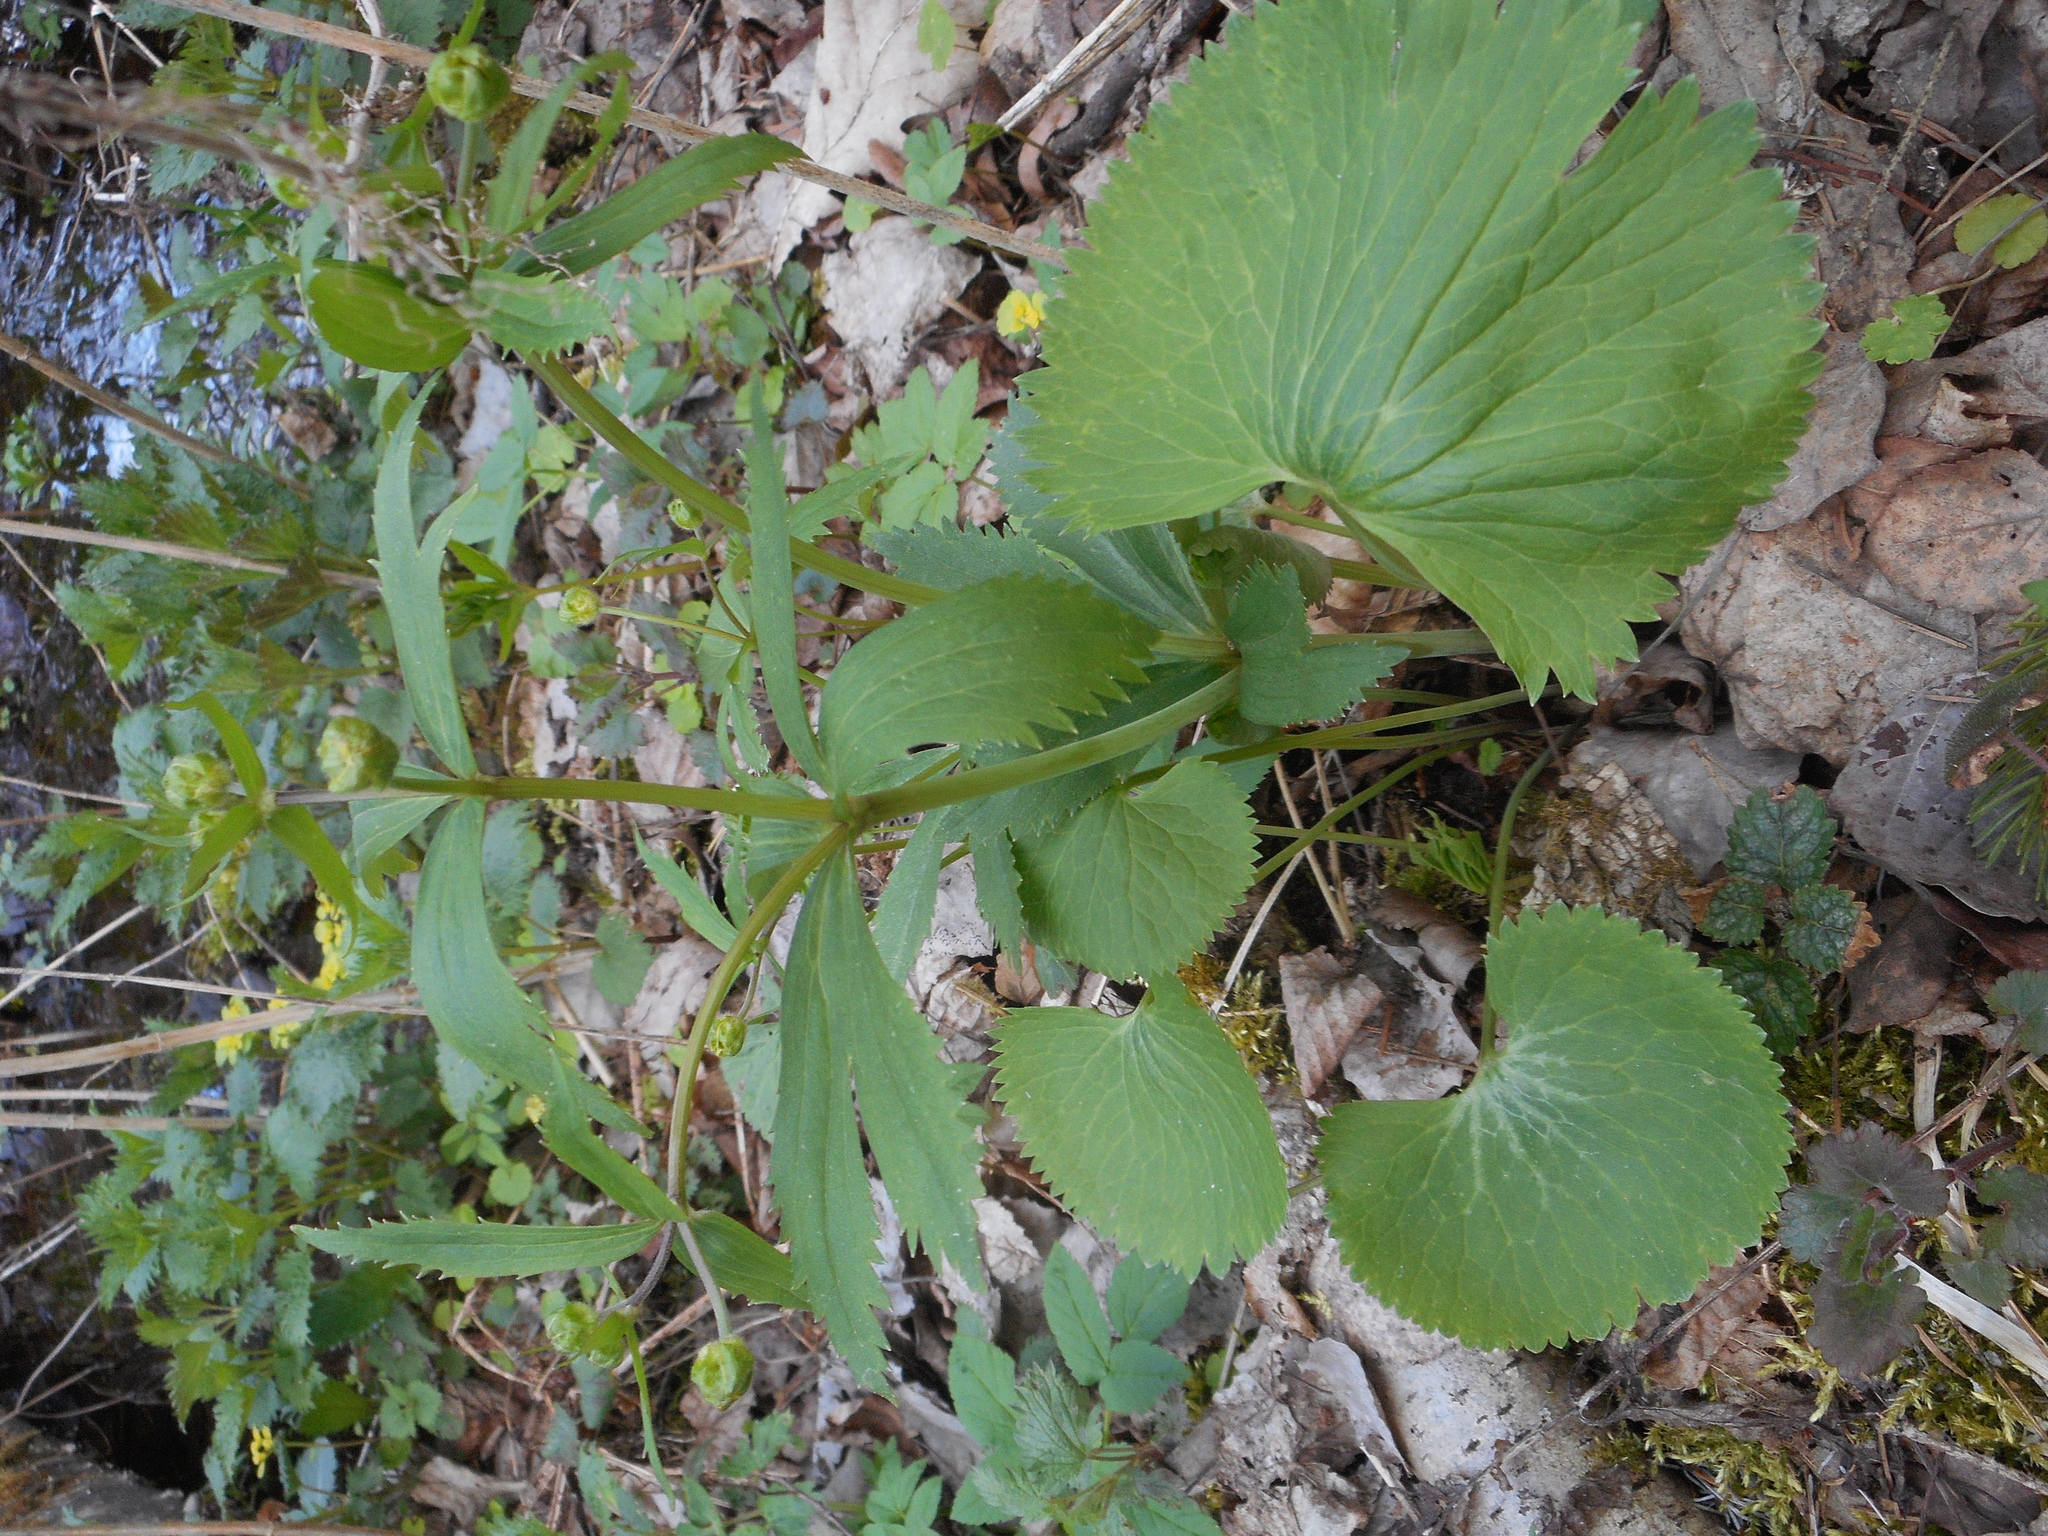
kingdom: Plantae
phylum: Tracheophyta
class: Magnoliopsida
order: Ranunculales
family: Ranunculaceae
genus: Ranunculus
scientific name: Ranunculus cassubicus
